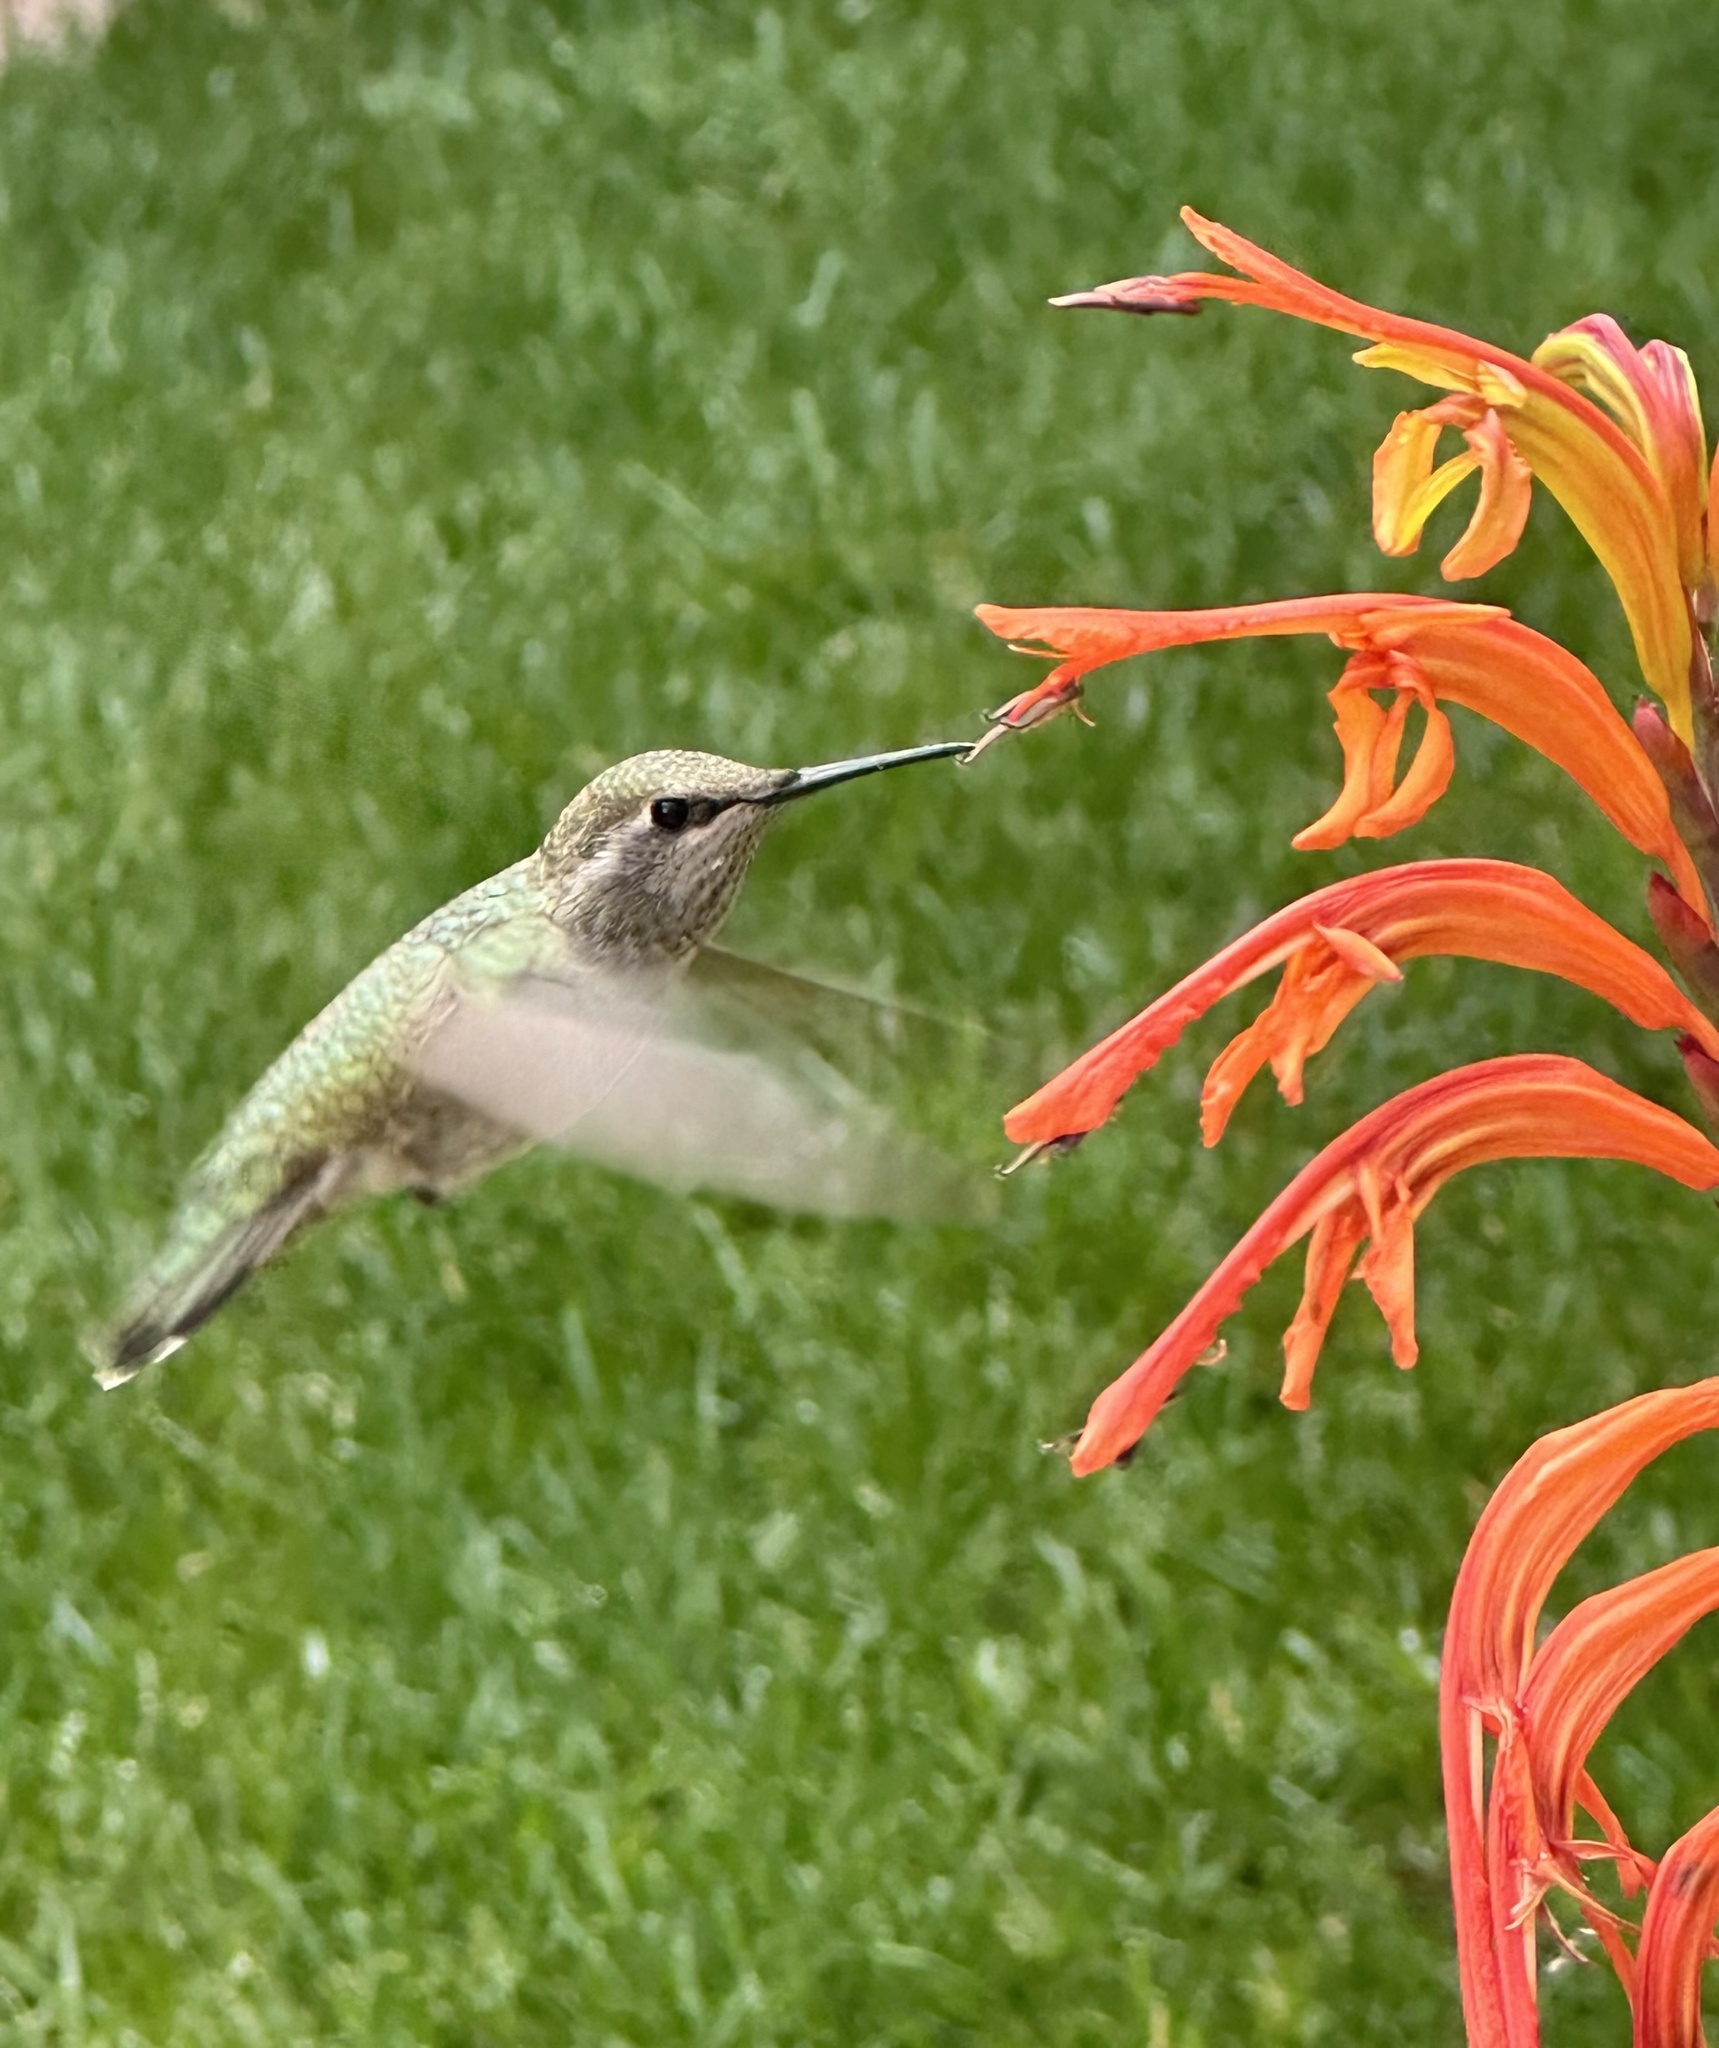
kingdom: Animalia
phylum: Chordata
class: Aves
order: Apodiformes
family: Trochilidae
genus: Calypte
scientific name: Calypte anna
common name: Anna's hummingbird
